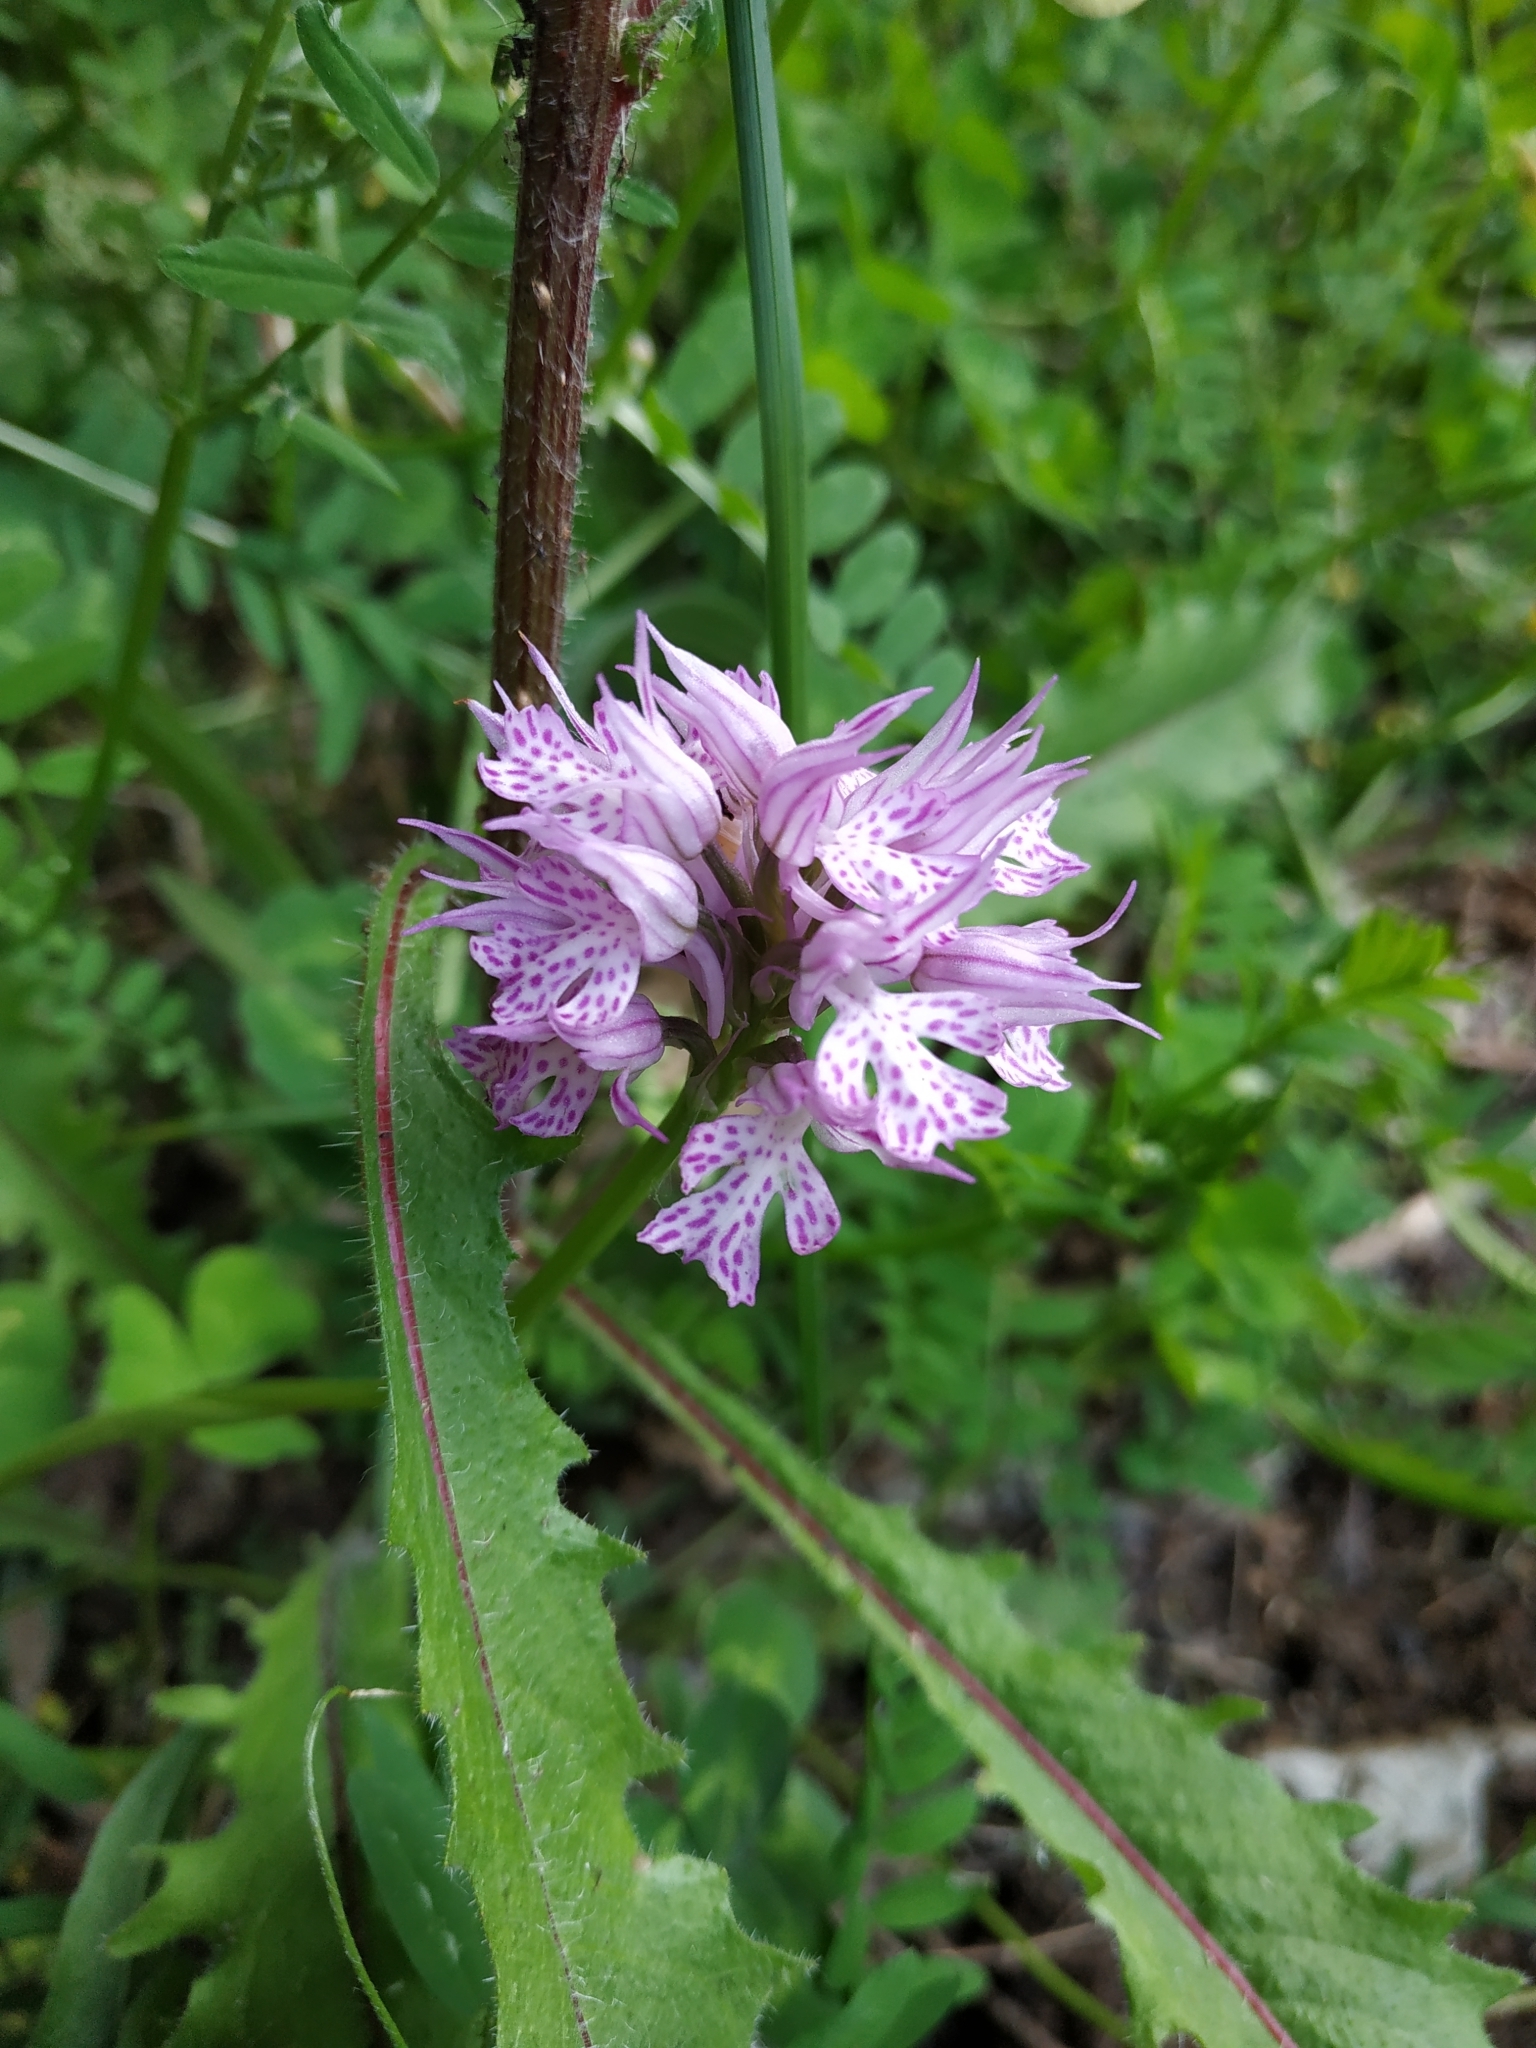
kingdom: Plantae
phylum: Tracheophyta
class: Liliopsida
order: Asparagales
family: Orchidaceae
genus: Neotinea
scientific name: Neotinea tridentata
